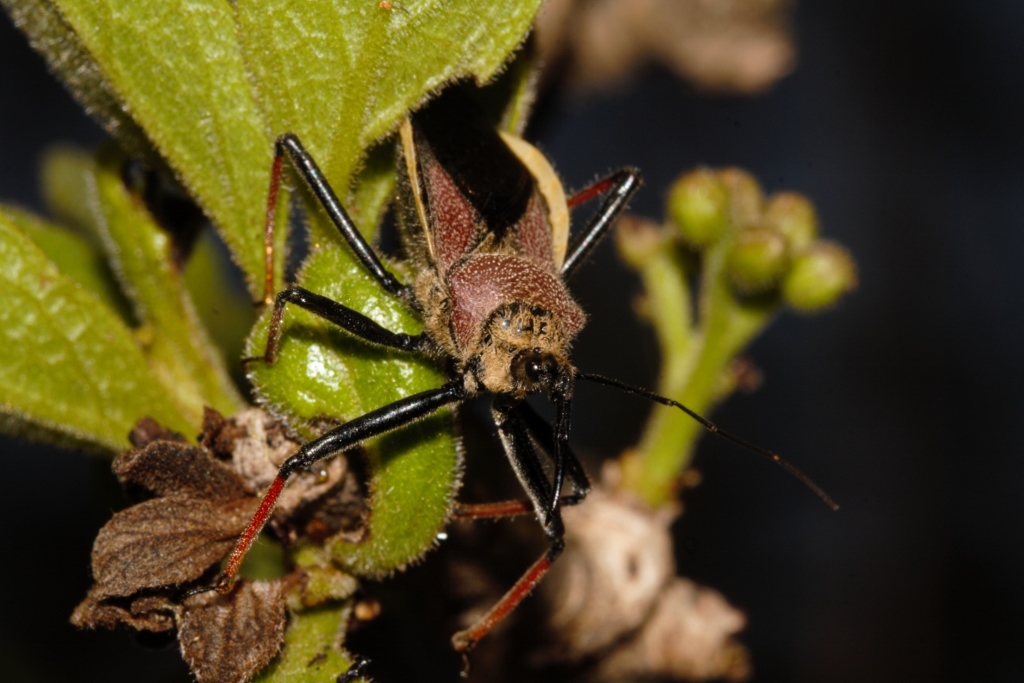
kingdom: Animalia
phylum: Arthropoda
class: Insecta
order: Hemiptera
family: Reduviidae
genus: Rhynocoris
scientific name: Rhynocoris erythrocnemis
